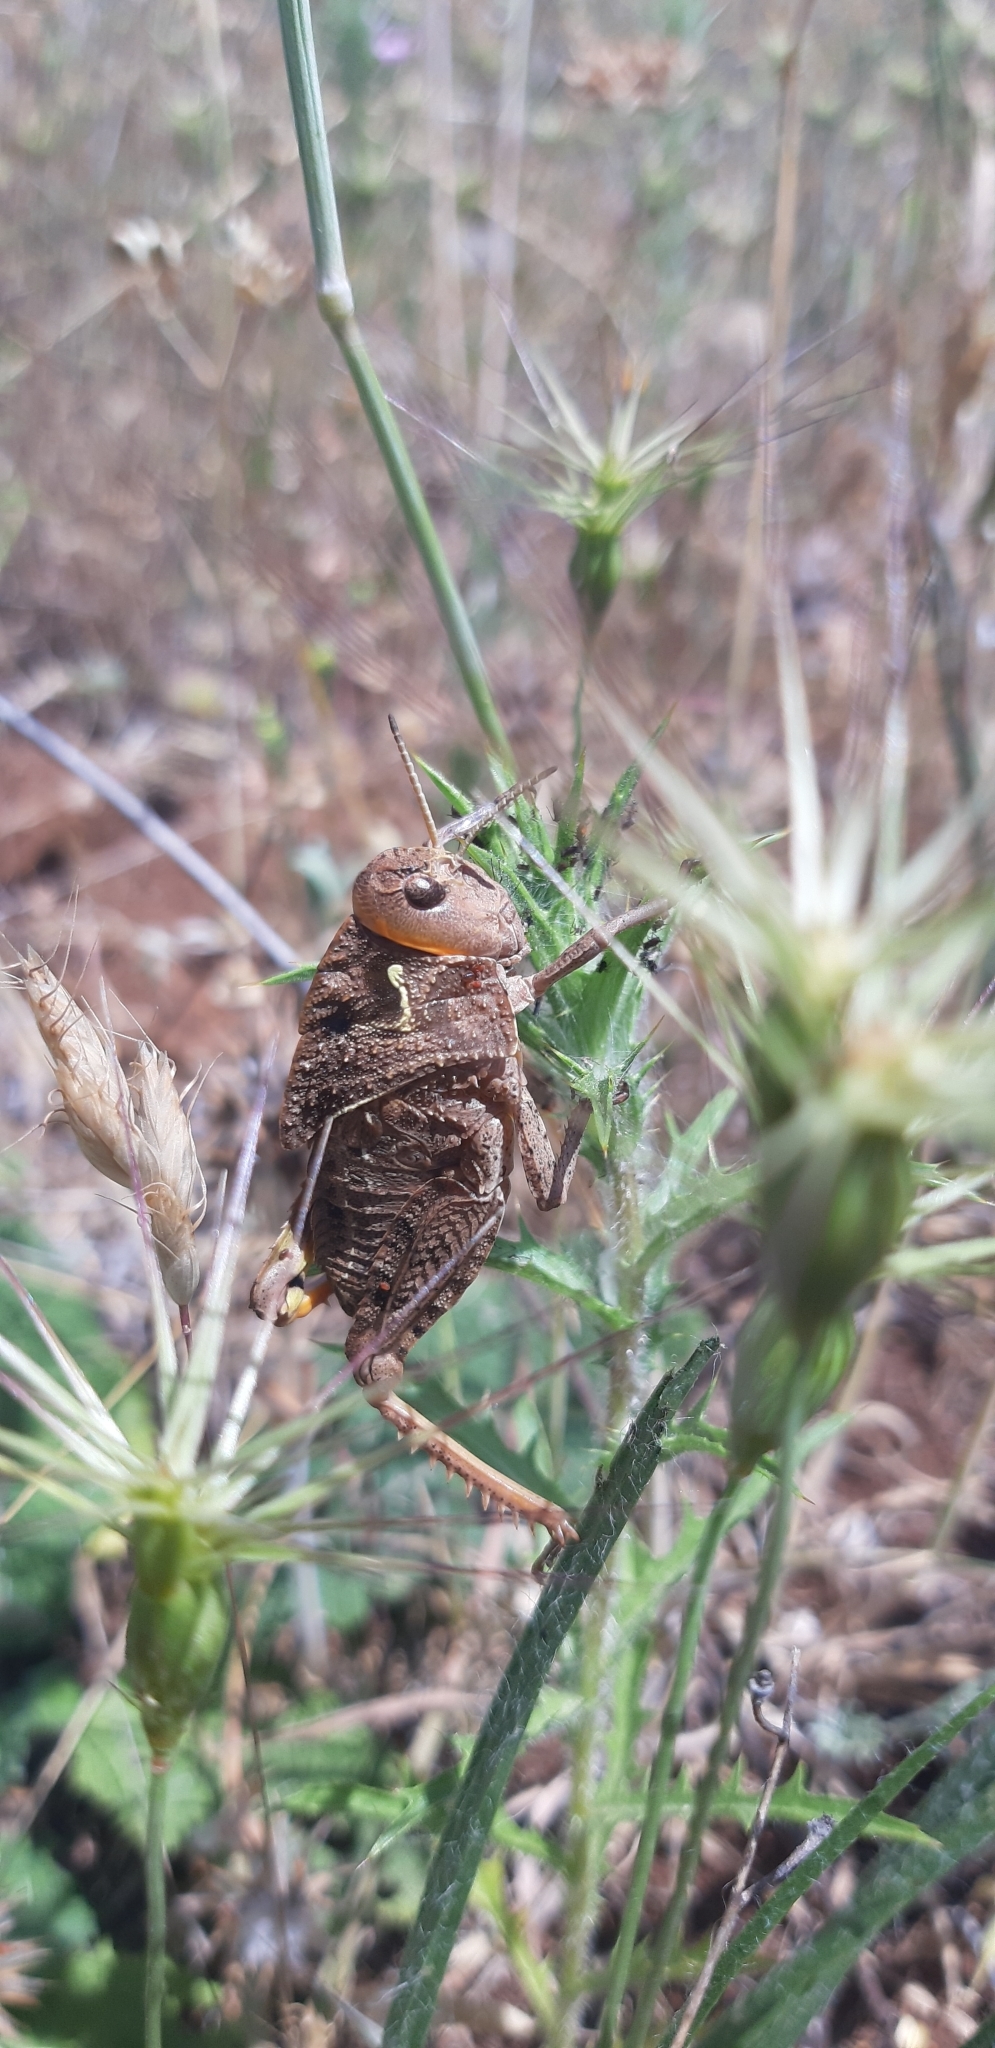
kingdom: Animalia
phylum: Arthropoda
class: Insecta
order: Orthoptera
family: Pamphagidae
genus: Prionotropis
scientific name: Prionotropis appula
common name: Apulian stone grasshopper
